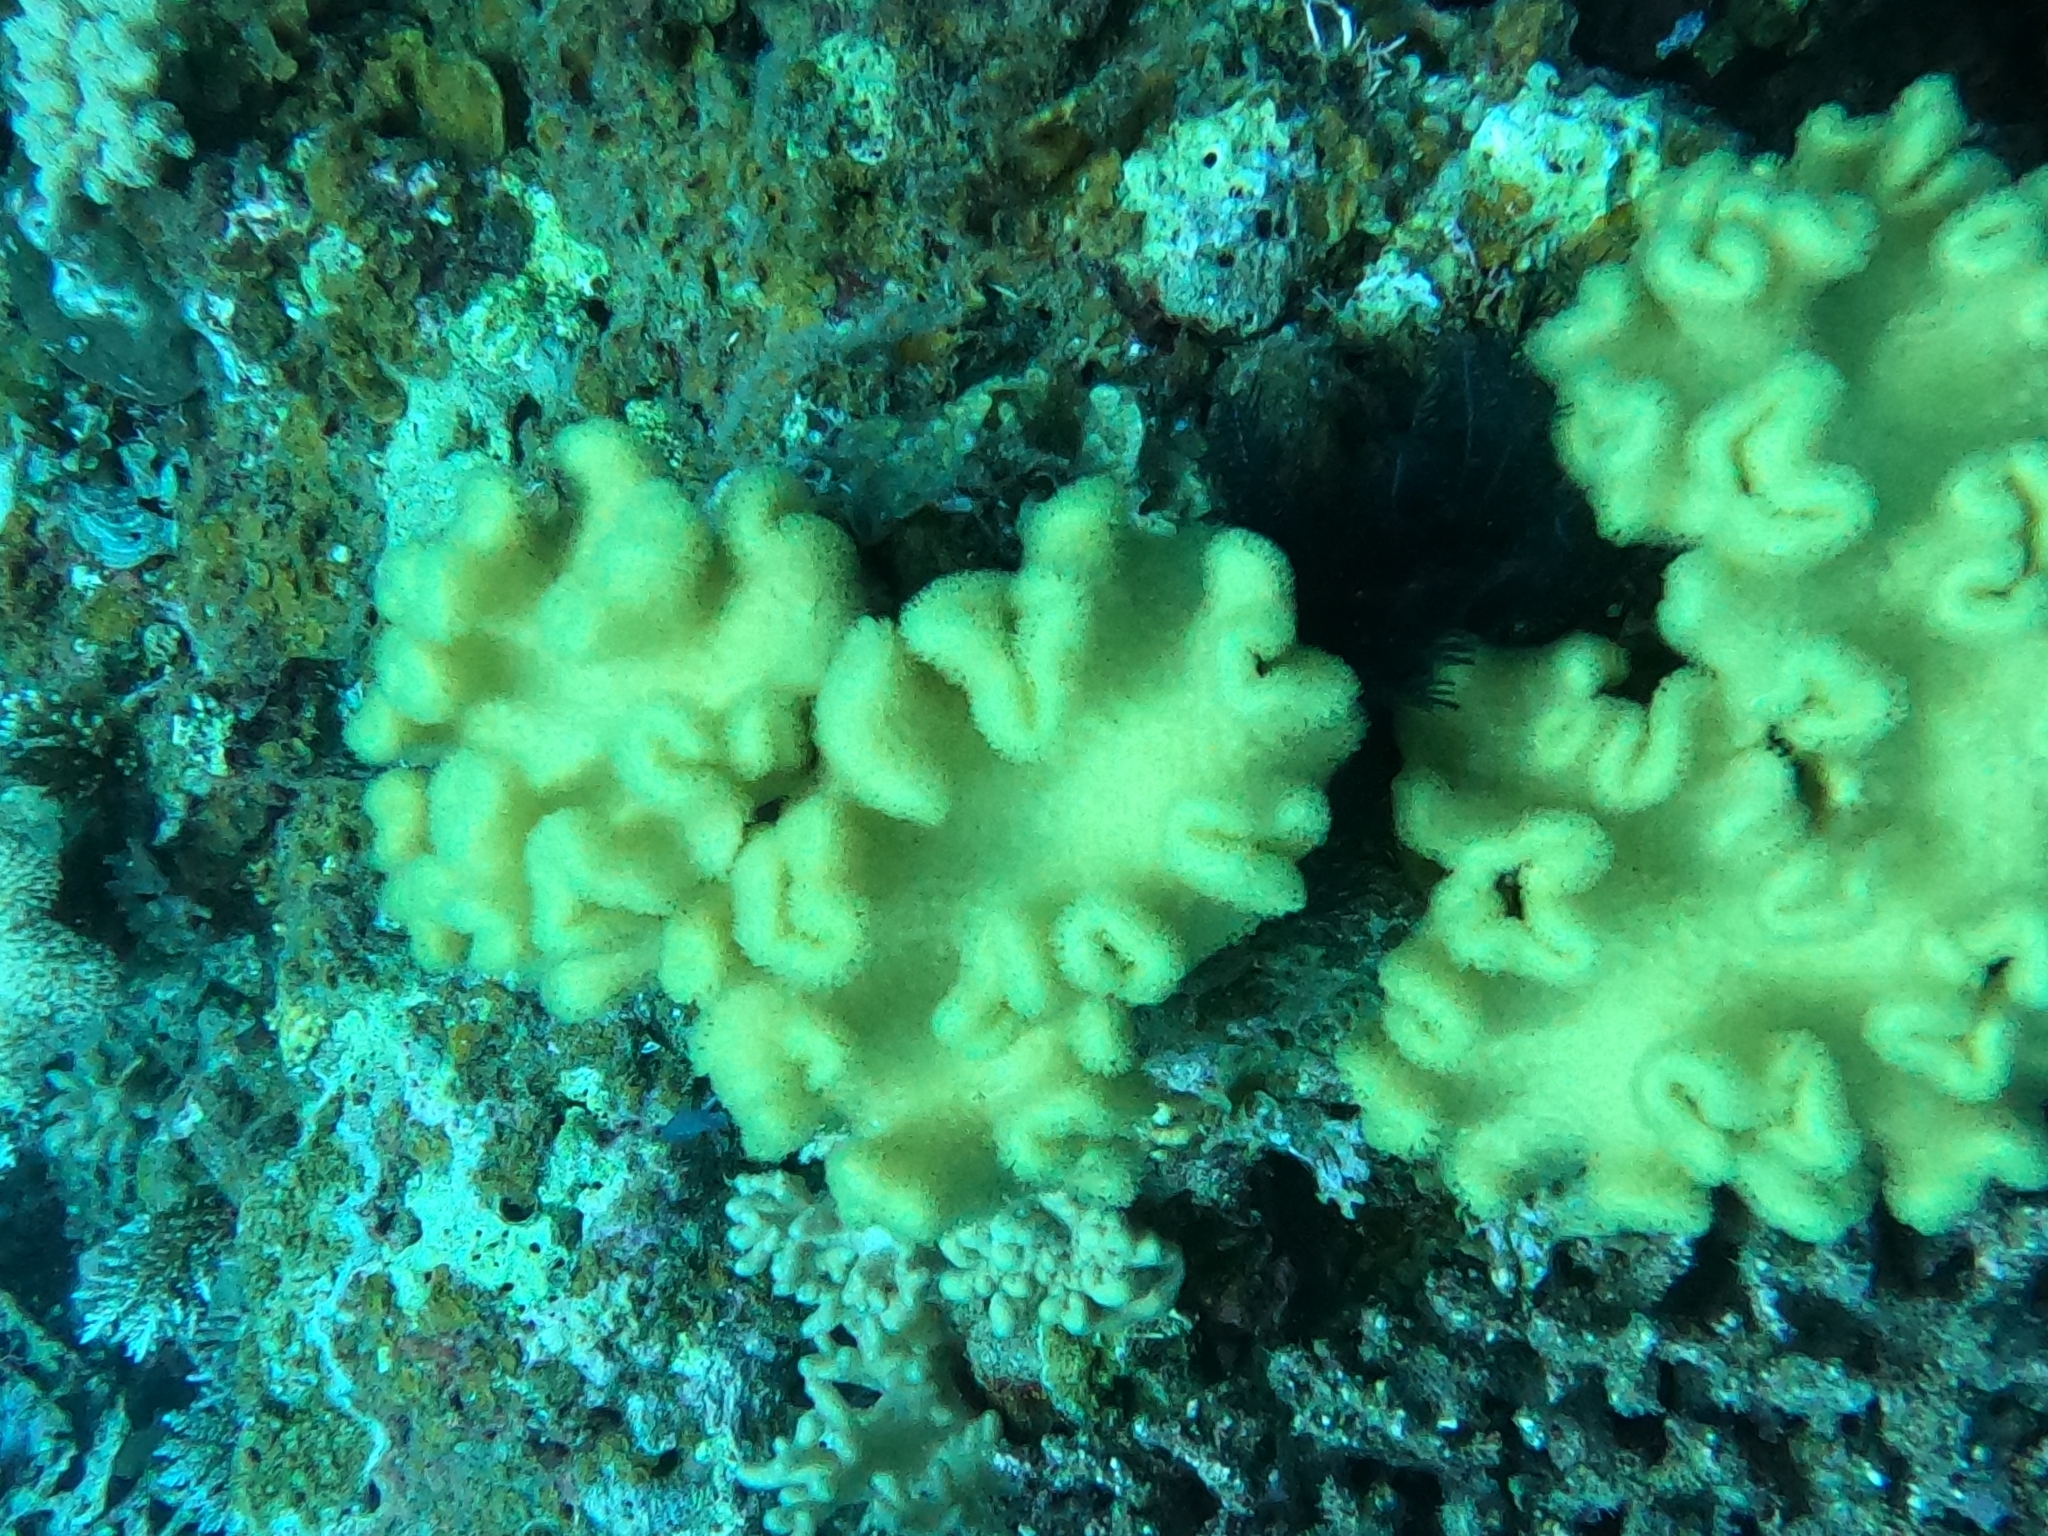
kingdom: Animalia
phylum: Cnidaria
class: Anthozoa
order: Malacalcyonacea
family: Sarcophytidae
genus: Sarcophyton
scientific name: Sarcophyton elegans
